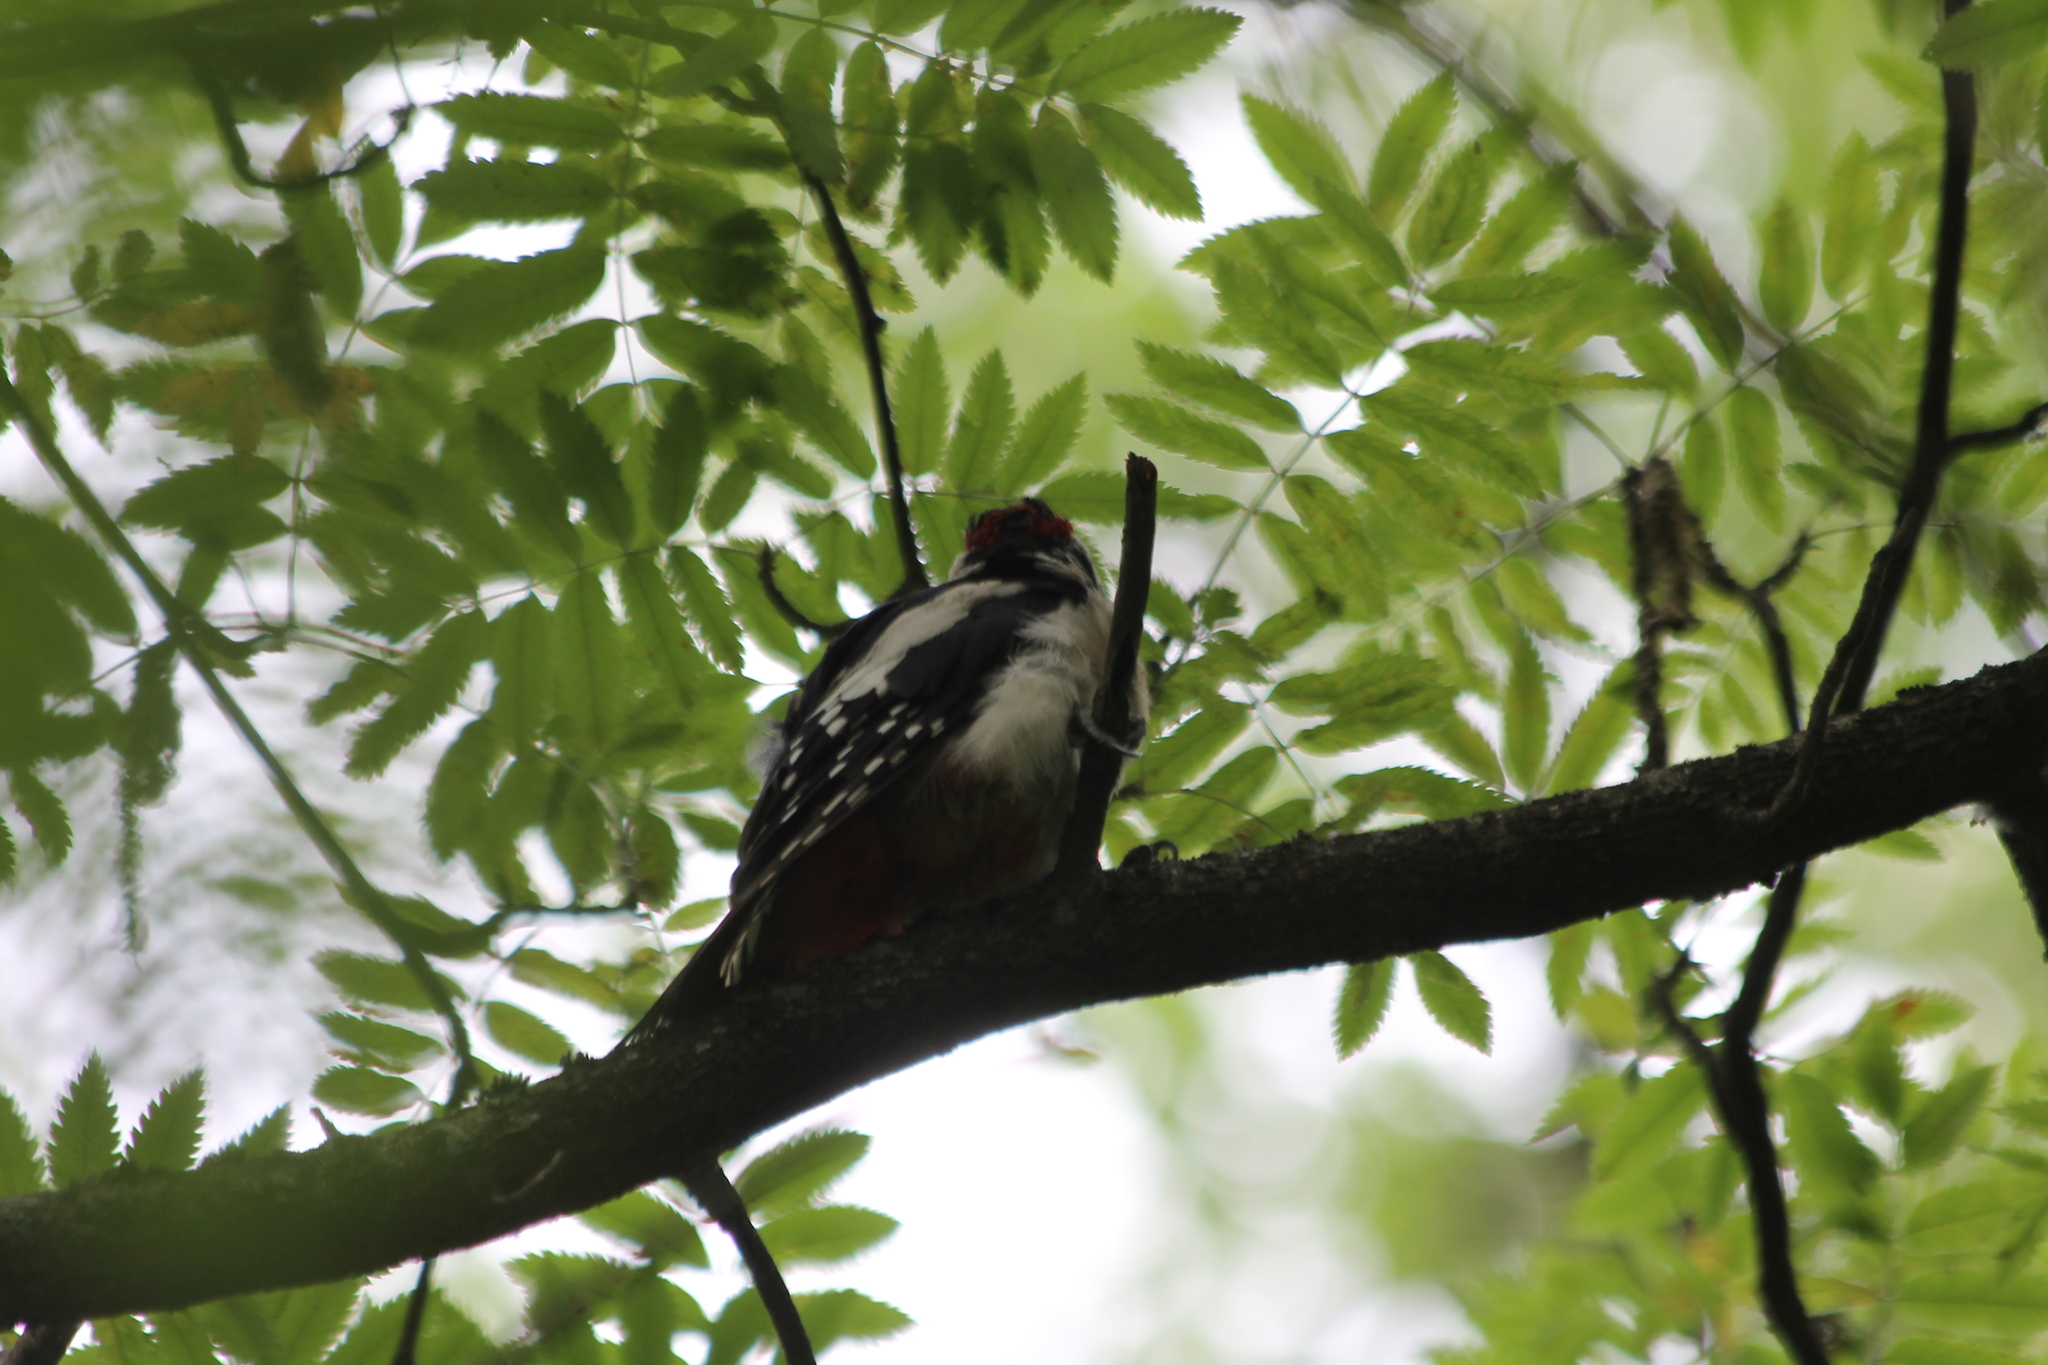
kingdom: Animalia
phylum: Chordata
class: Aves
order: Piciformes
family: Picidae
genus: Dendrocopos
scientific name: Dendrocopos major
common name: Great spotted woodpecker
